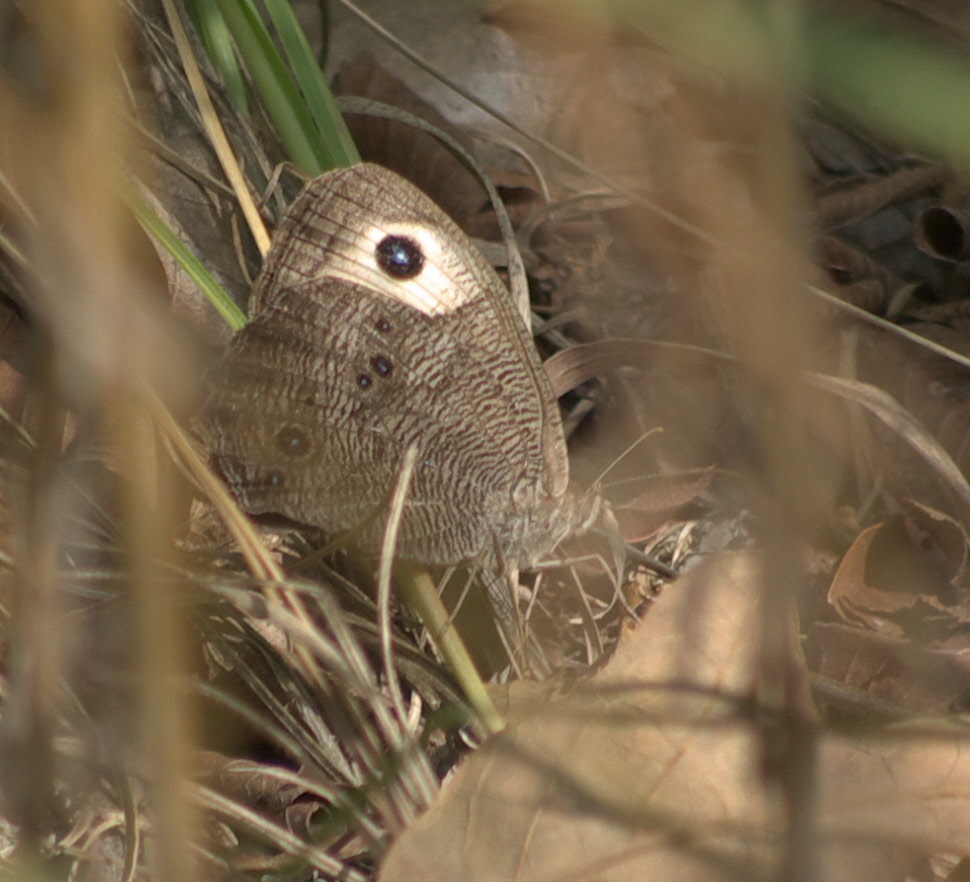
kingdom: Animalia
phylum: Arthropoda
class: Insecta
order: Lepidoptera
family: Nymphalidae
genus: Cercyonis
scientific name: Cercyonis pegala
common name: Common wood-nymph
